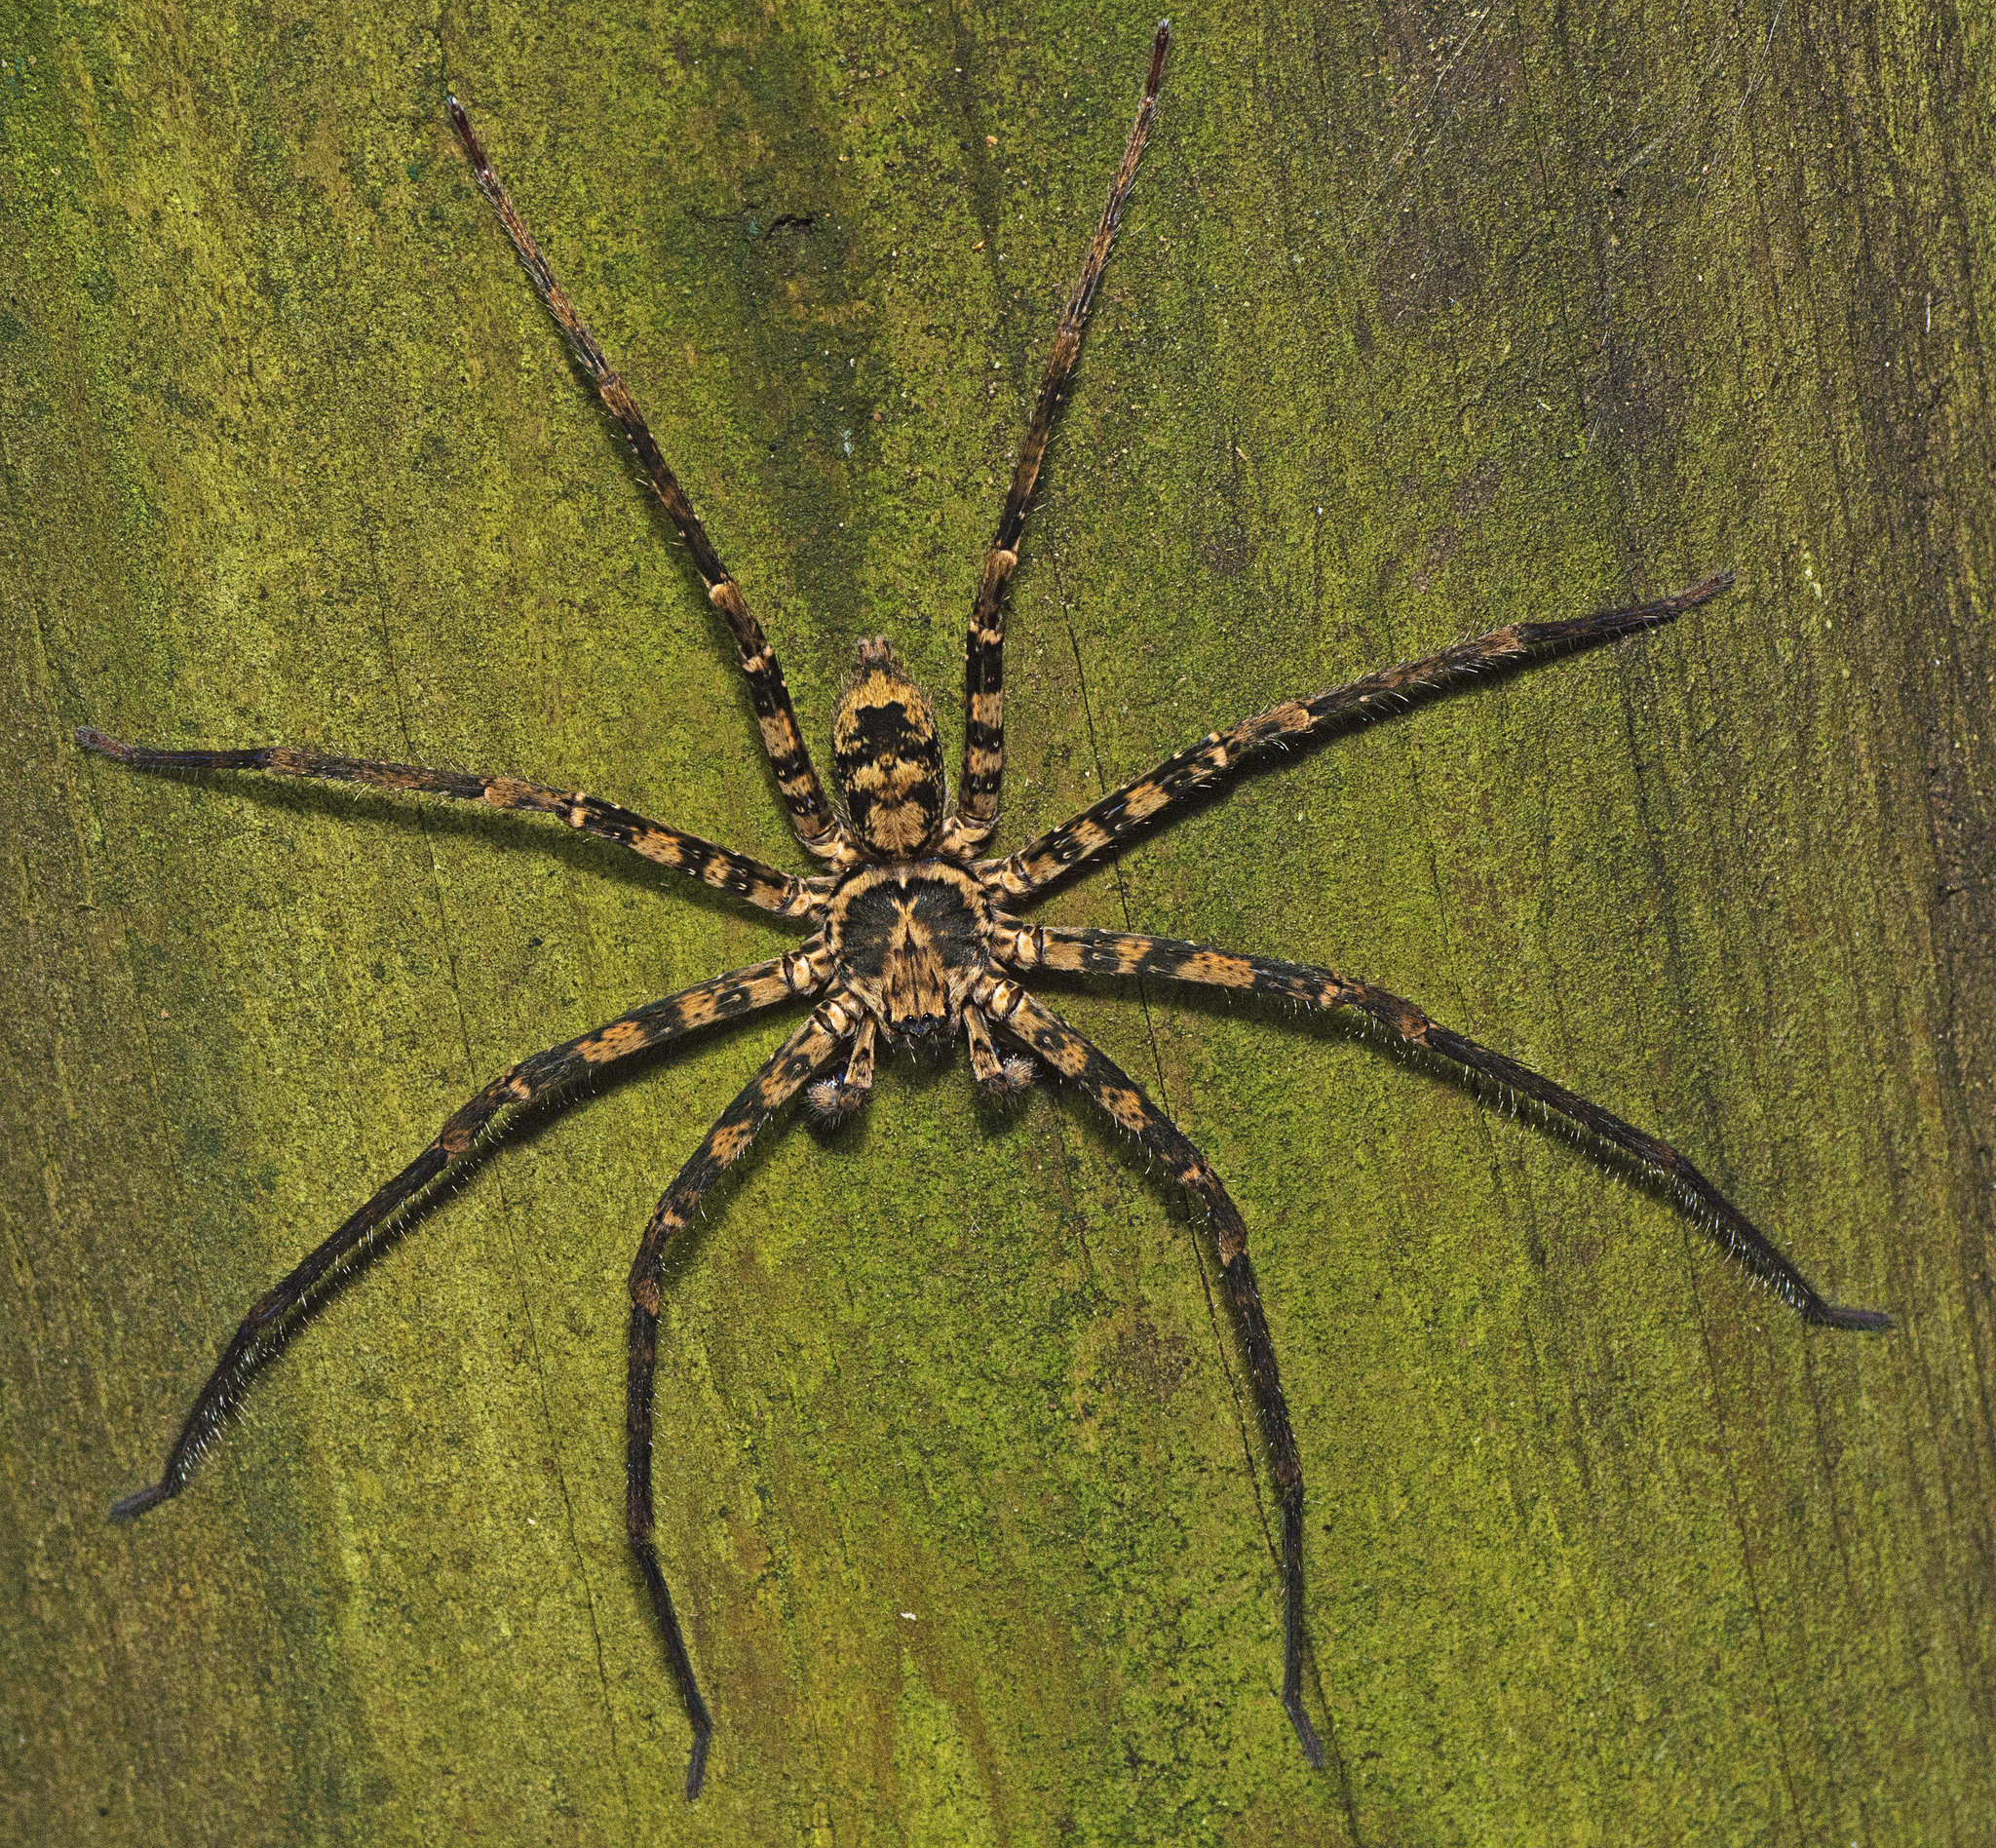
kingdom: Animalia
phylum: Arthropoda
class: Arachnida
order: Araneae
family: Sparassidae
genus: Heteropoda
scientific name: Heteropoda procera
